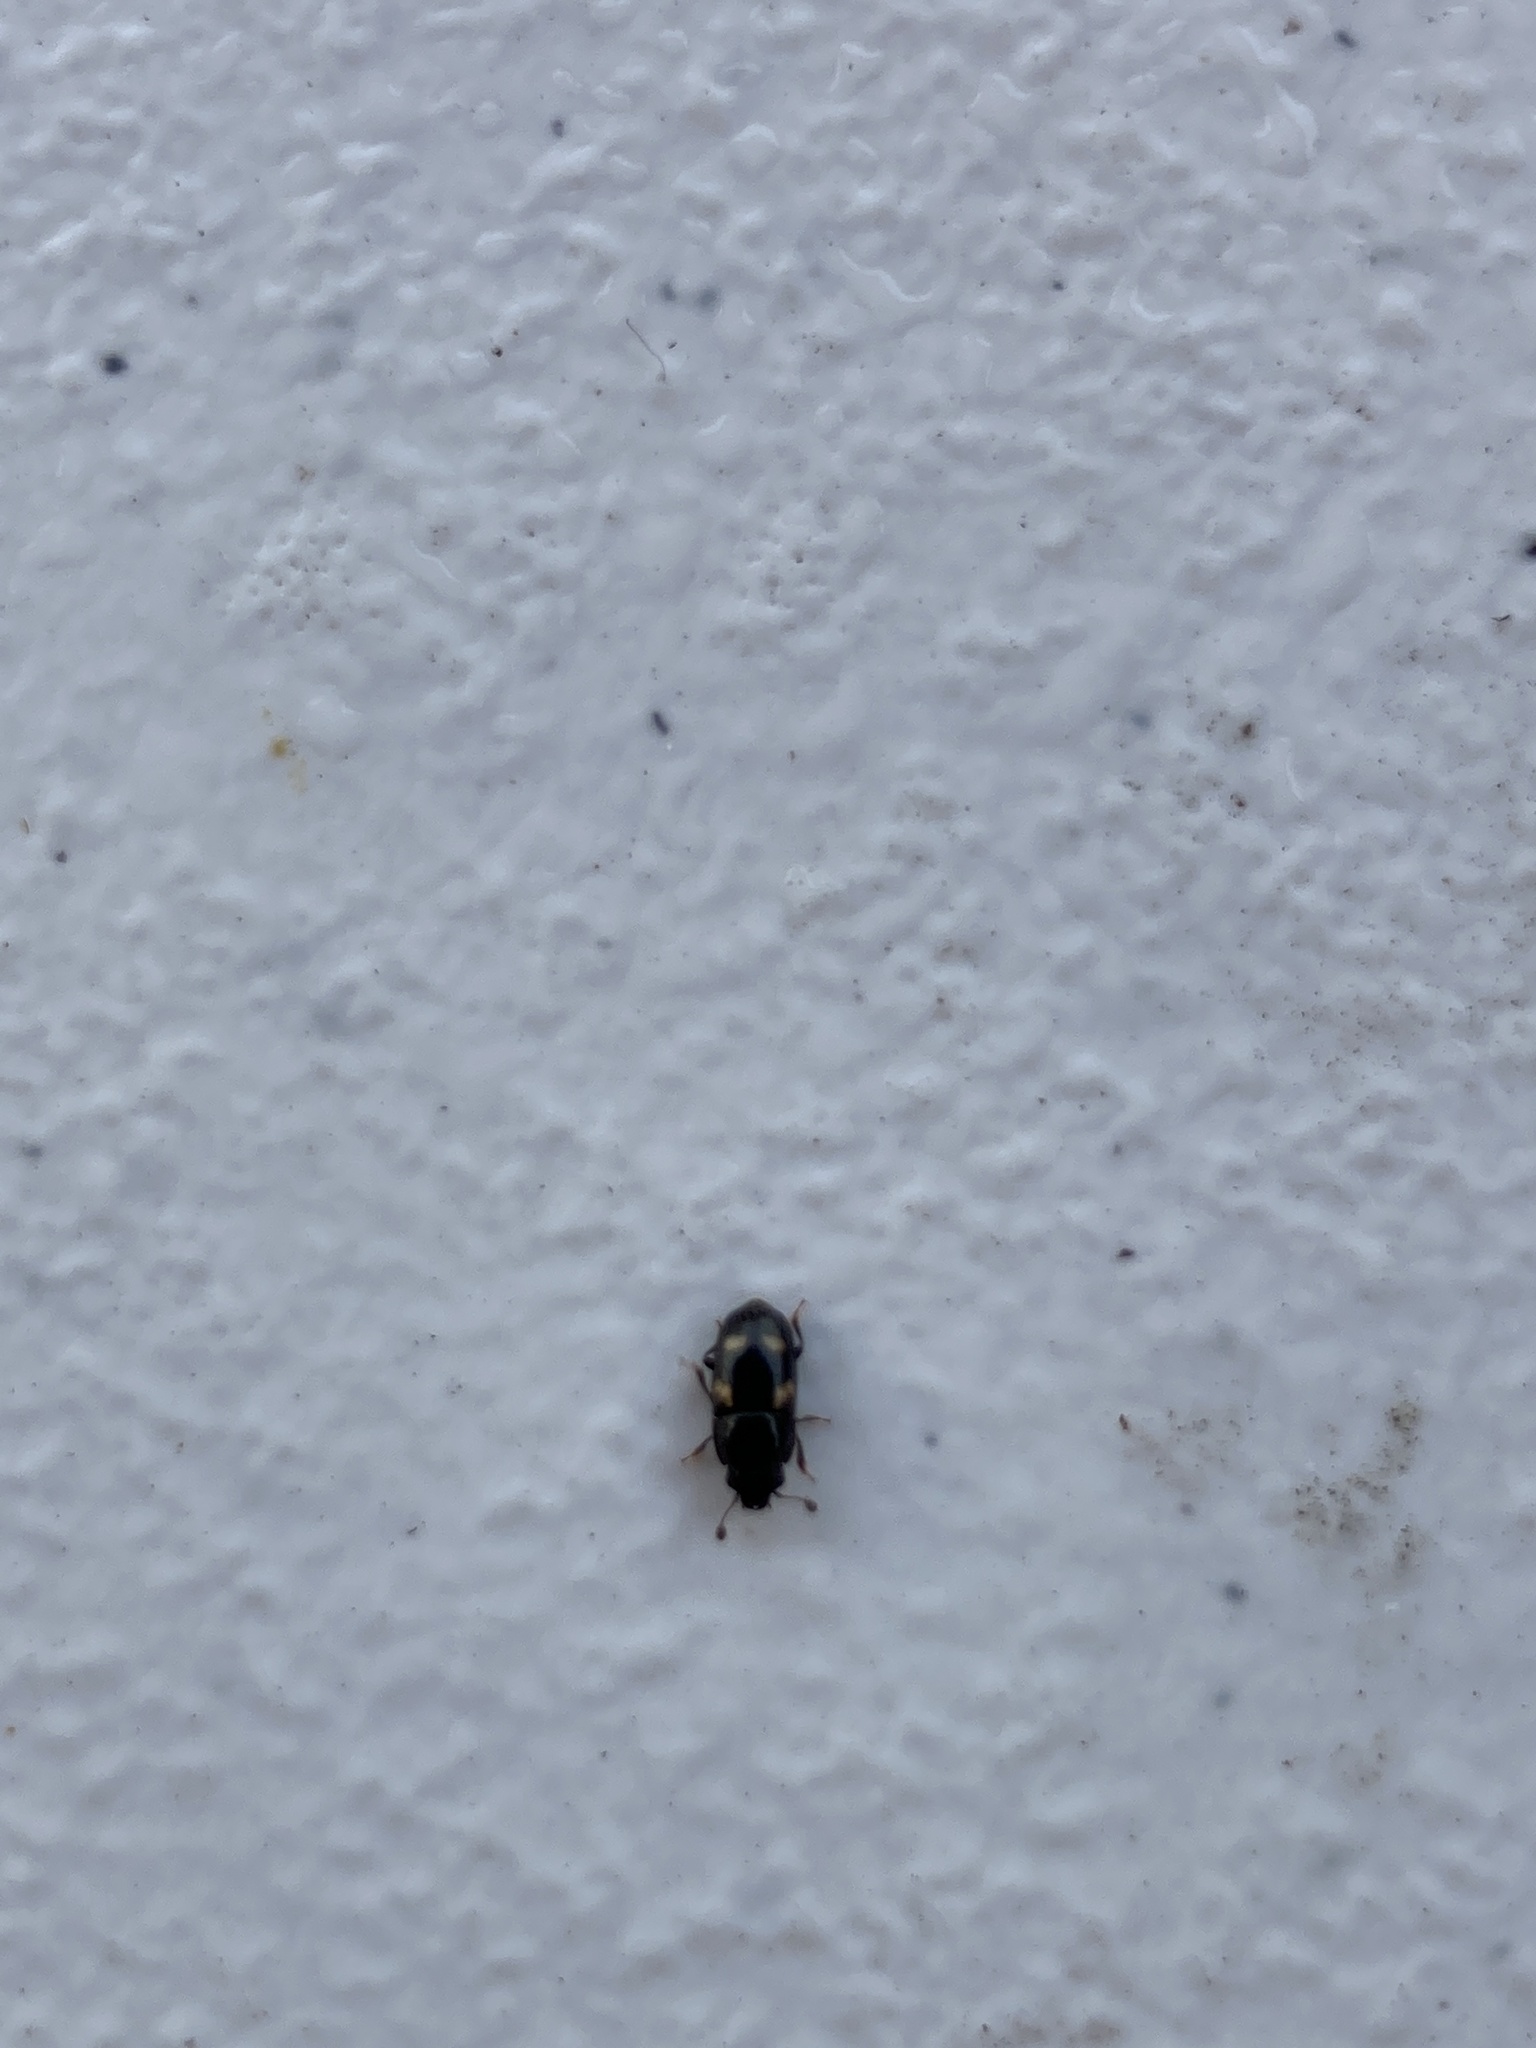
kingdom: Animalia
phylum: Arthropoda
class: Insecta
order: Coleoptera
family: Nitidulidae
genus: Glischrochilus
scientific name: Glischrochilus quadrisignatus
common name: Picnic beetle
